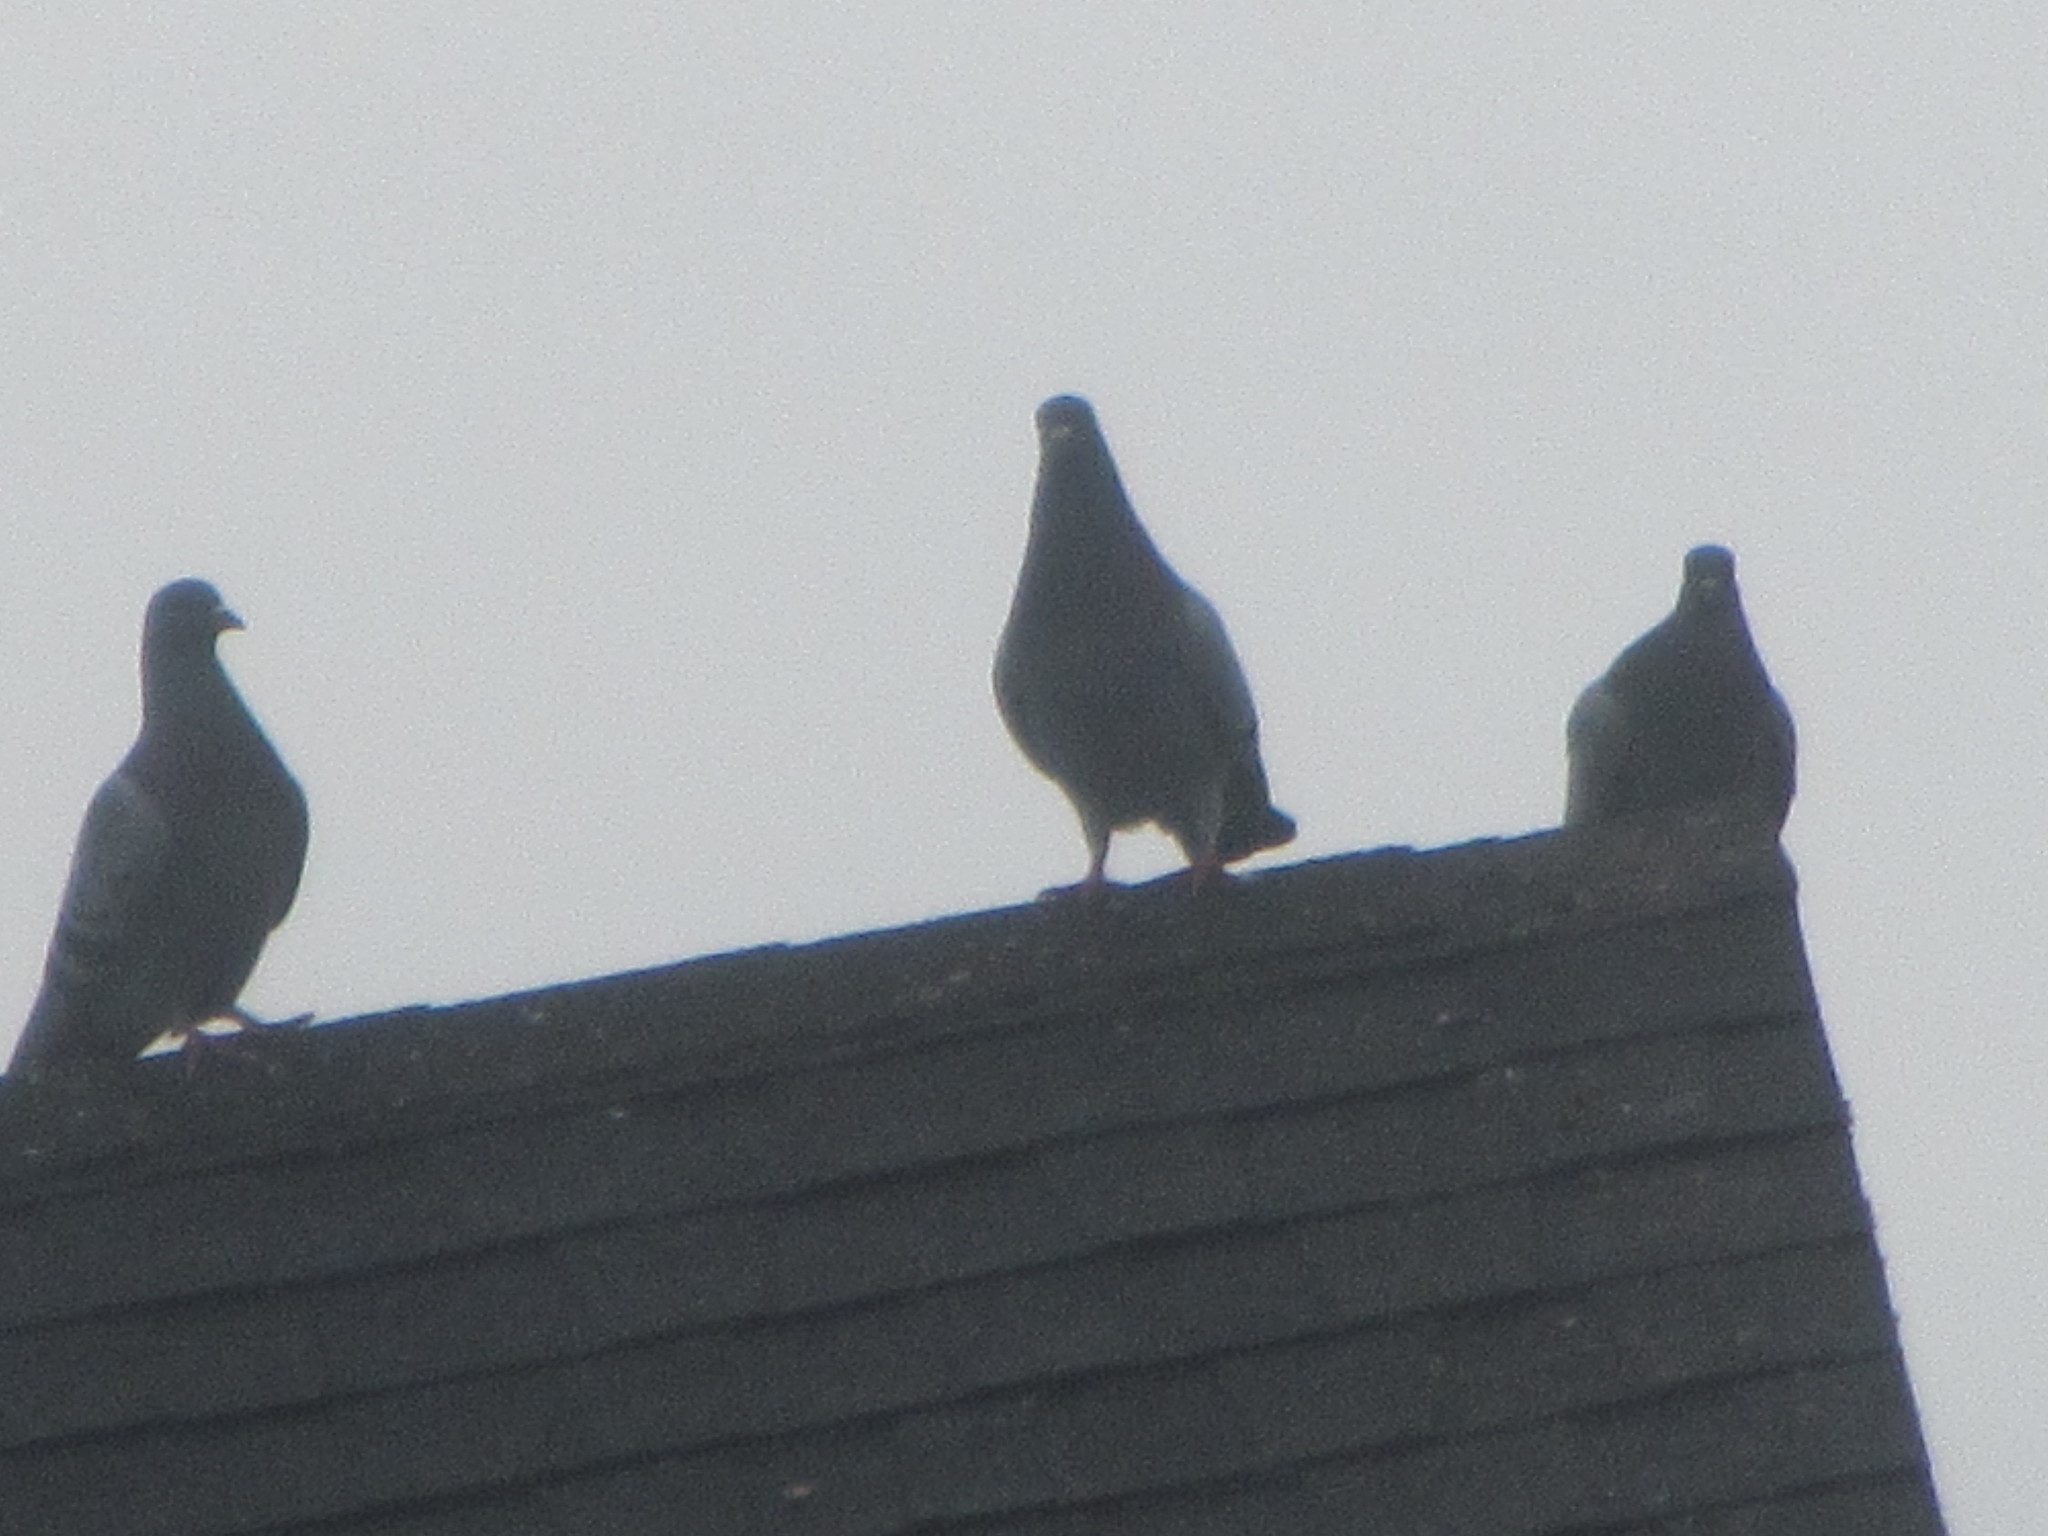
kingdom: Animalia
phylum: Chordata
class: Aves
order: Columbiformes
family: Columbidae
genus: Columba
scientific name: Columba livia
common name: Rock pigeon
